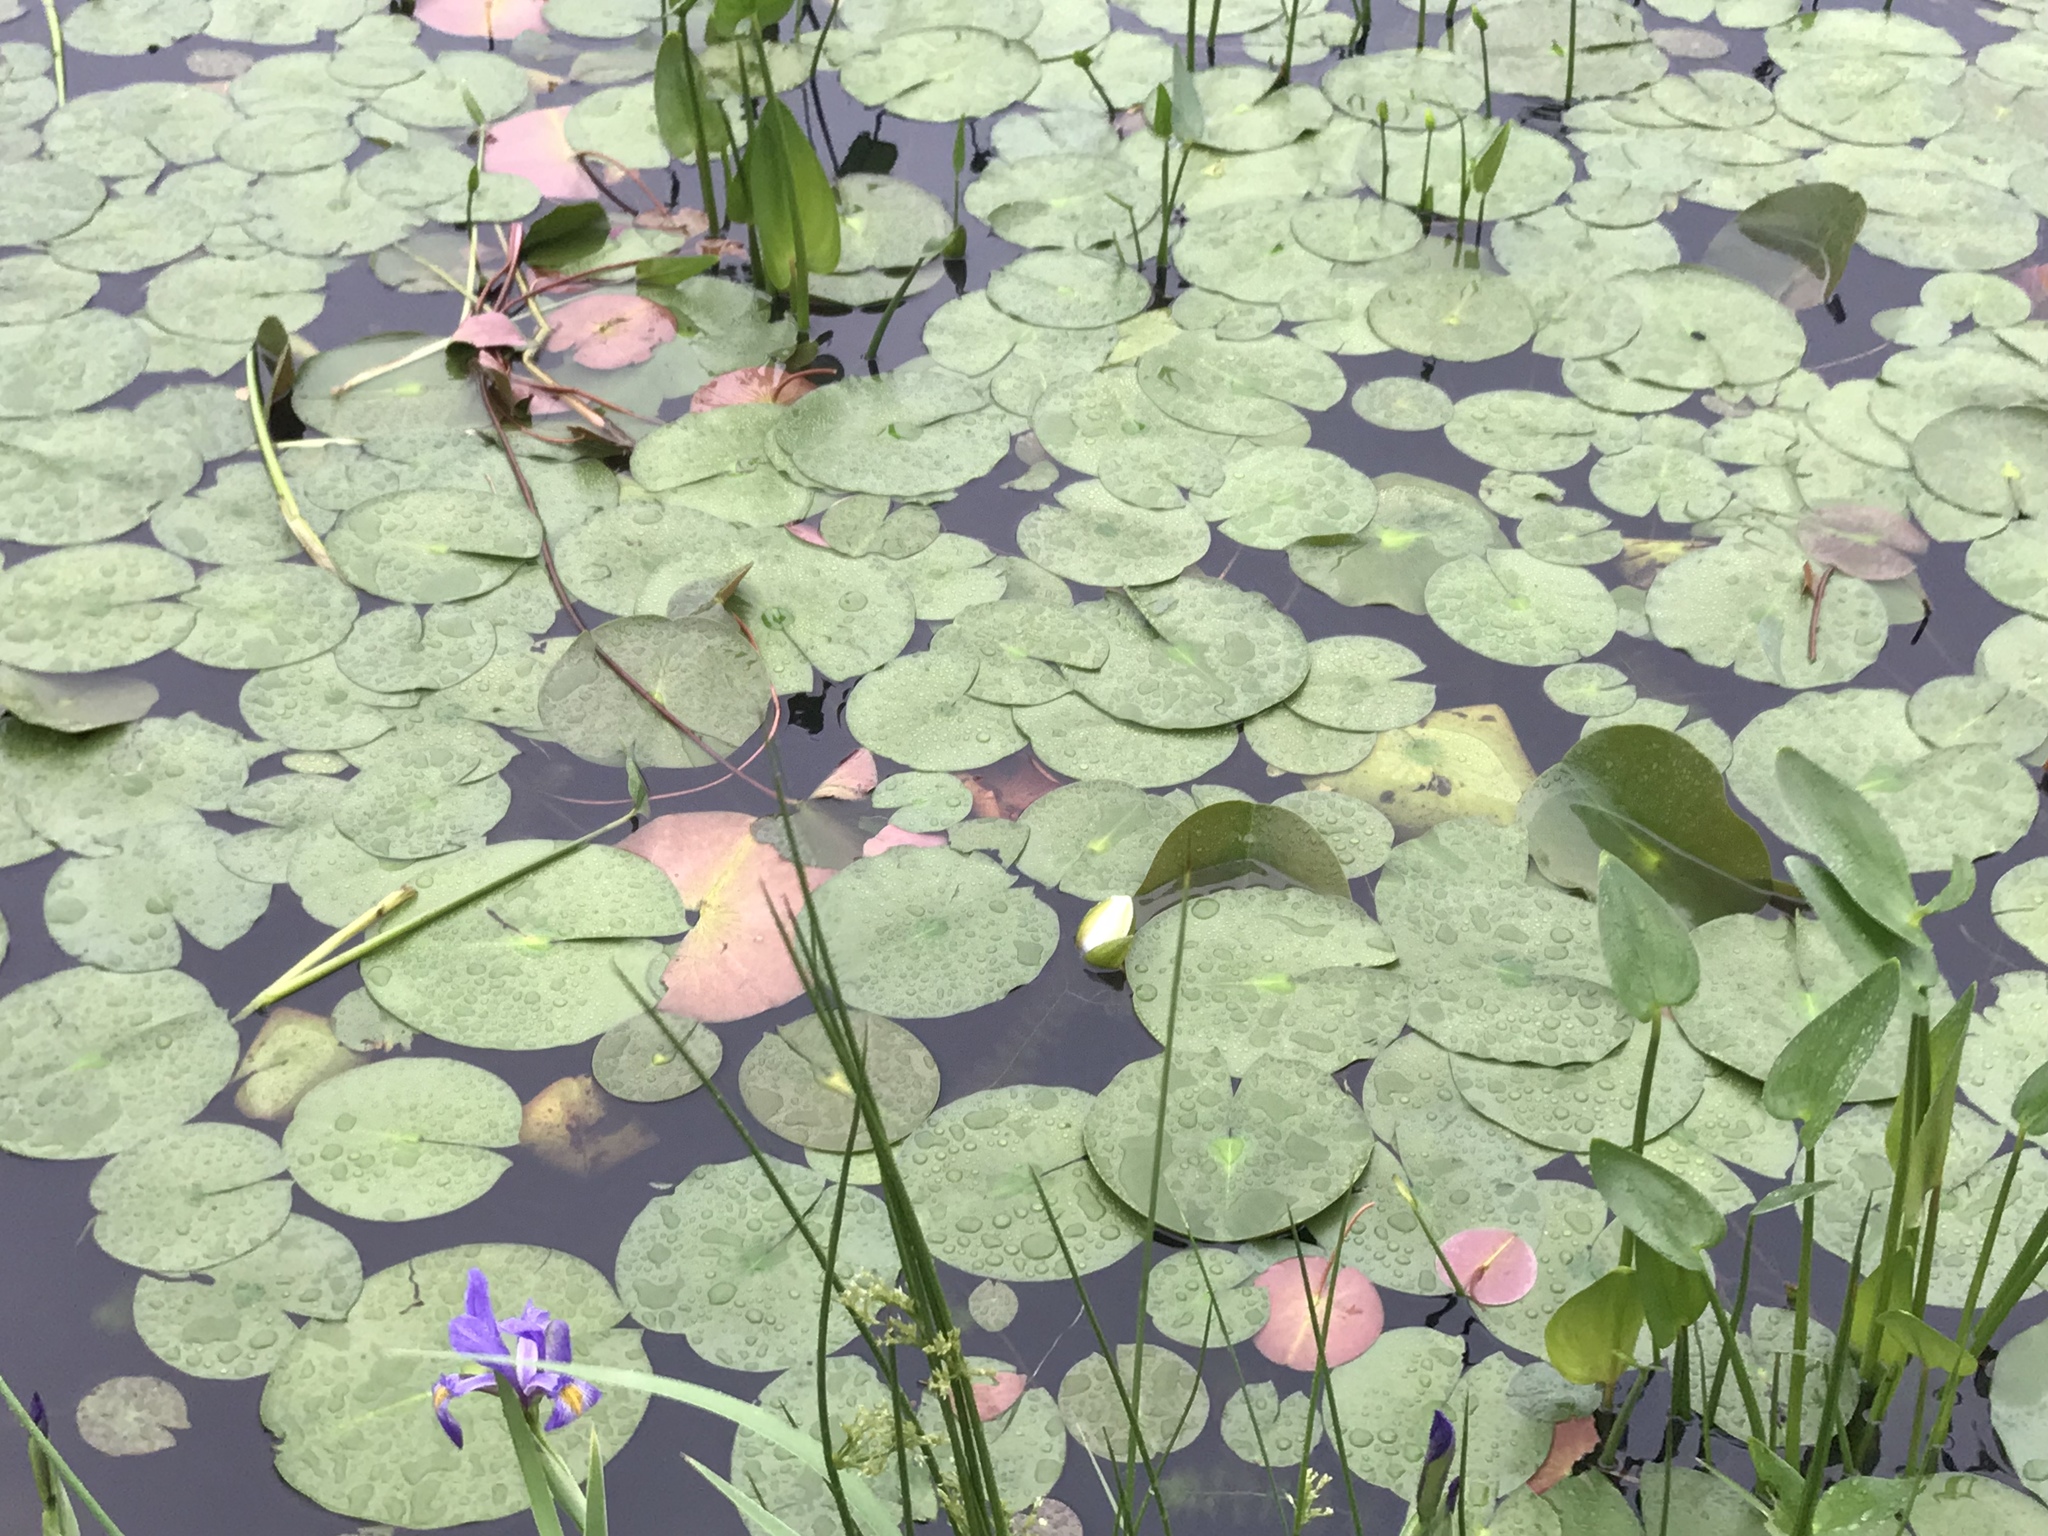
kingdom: Plantae
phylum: Tracheophyta
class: Magnoliopsida
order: Nymphaeales
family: Nymphaeaceae
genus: Nymphaea
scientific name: Nymphaea odorata
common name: Fragrant water-lily
